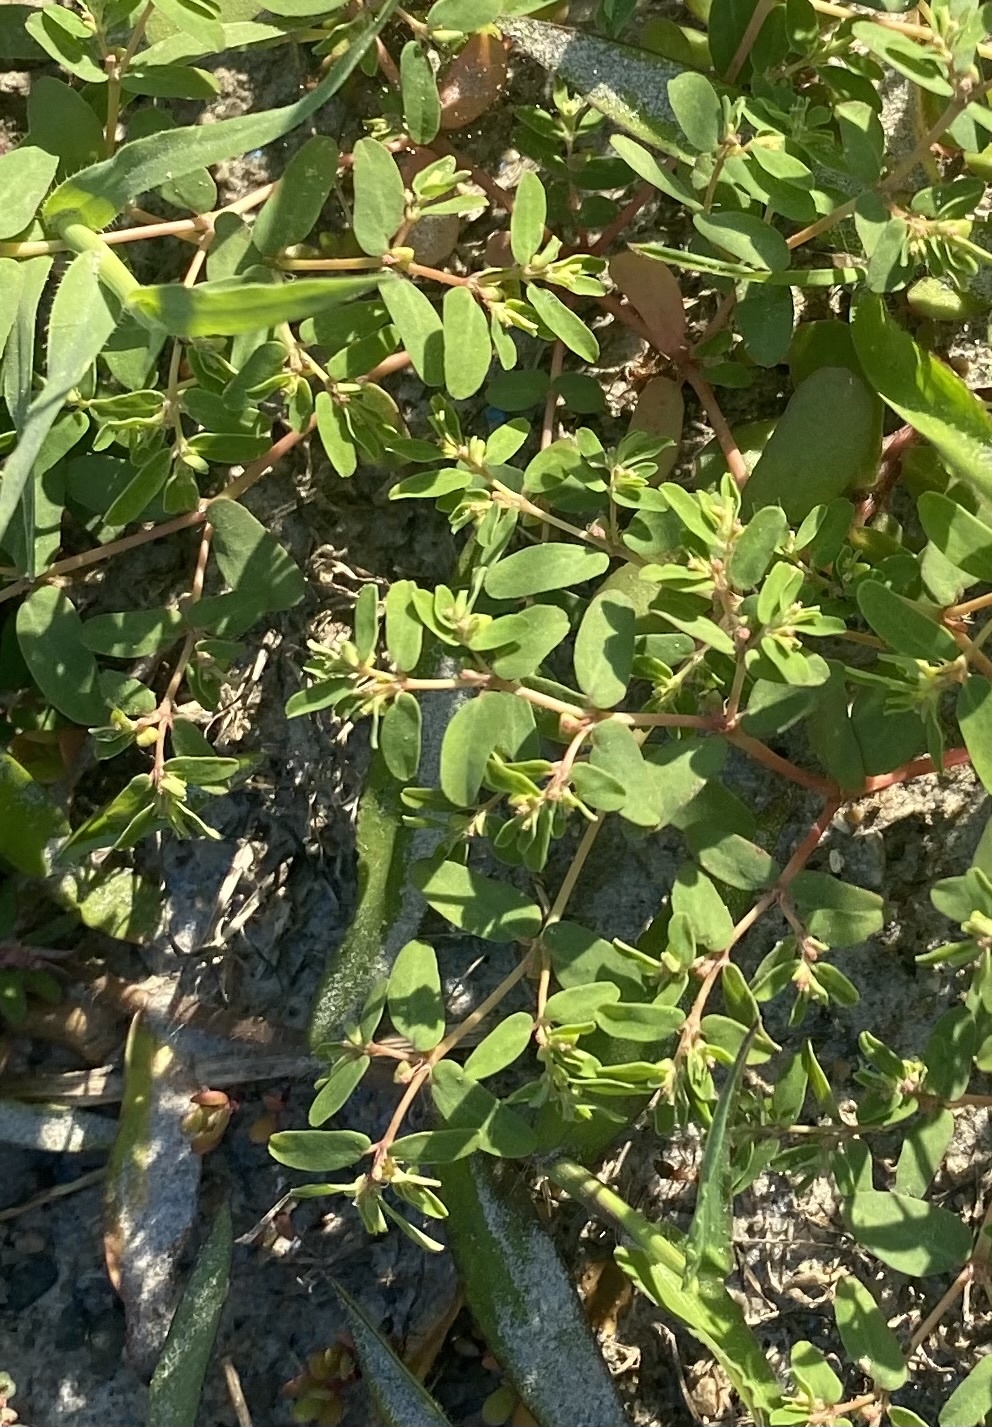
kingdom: Plantae
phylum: Tracheophyta
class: Magnoliopsida
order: Malpighiales
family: Euphorbiaceae
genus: Euphorbia
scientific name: Euphorbia glyptosperma
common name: Corrugate-seeded spurge
